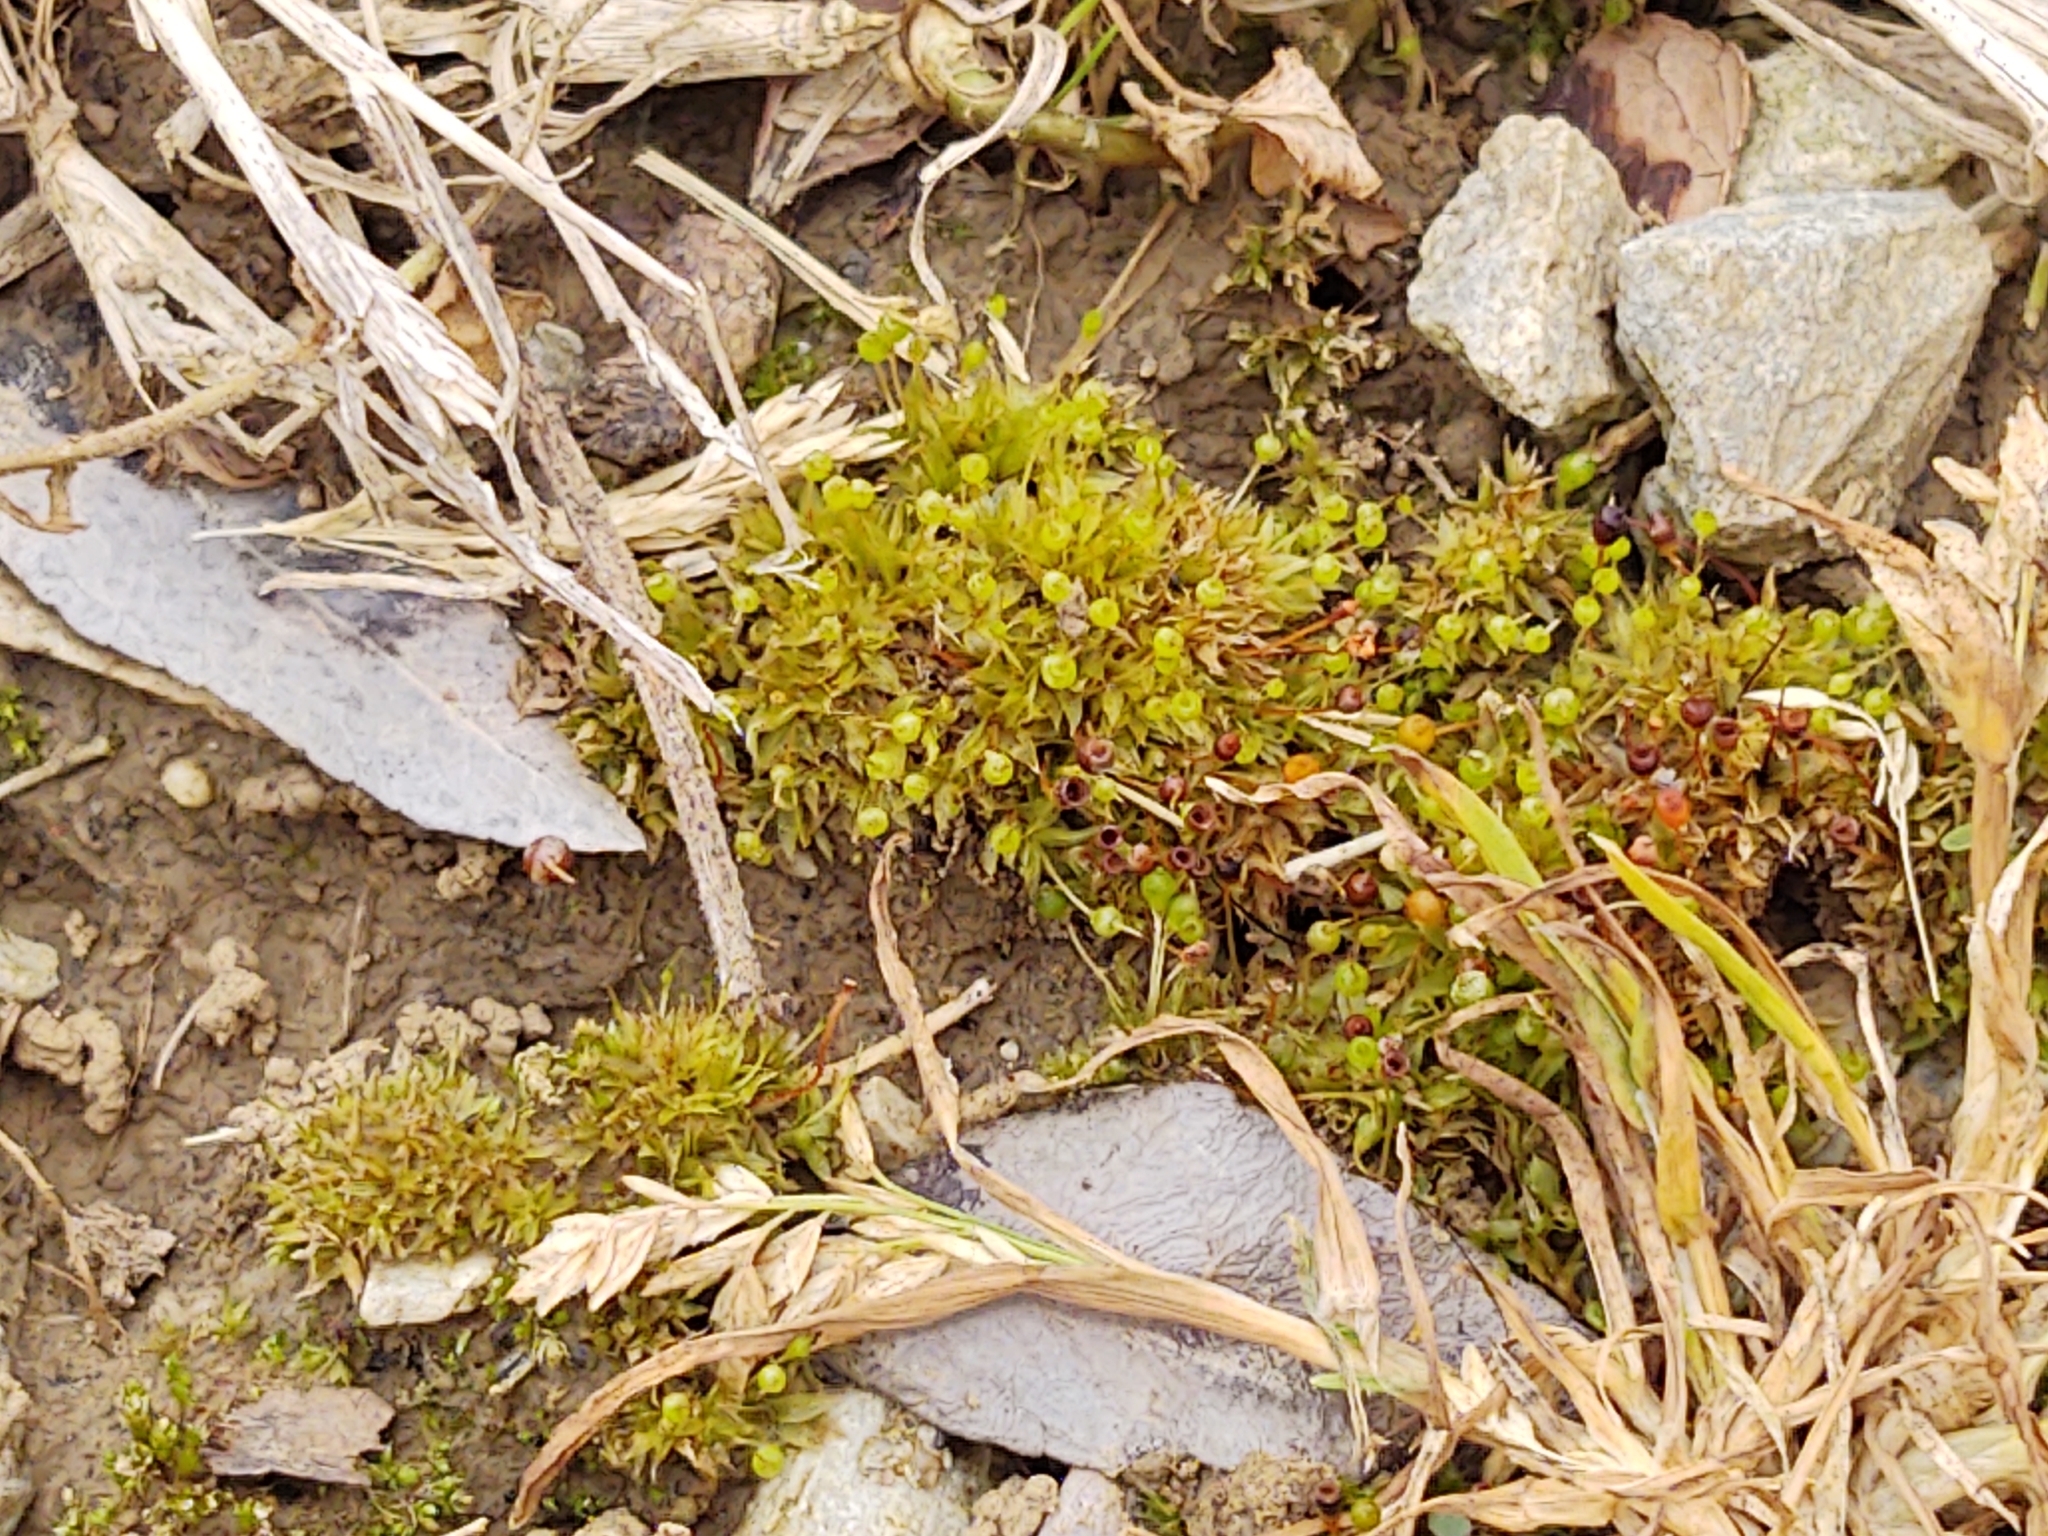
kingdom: Plantae
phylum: Bryophyta
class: Bryopsida
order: Funariales
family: Funariaceae
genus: Physcomitrium
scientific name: Physcomitrium pyriforme
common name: Common bladder-moss
